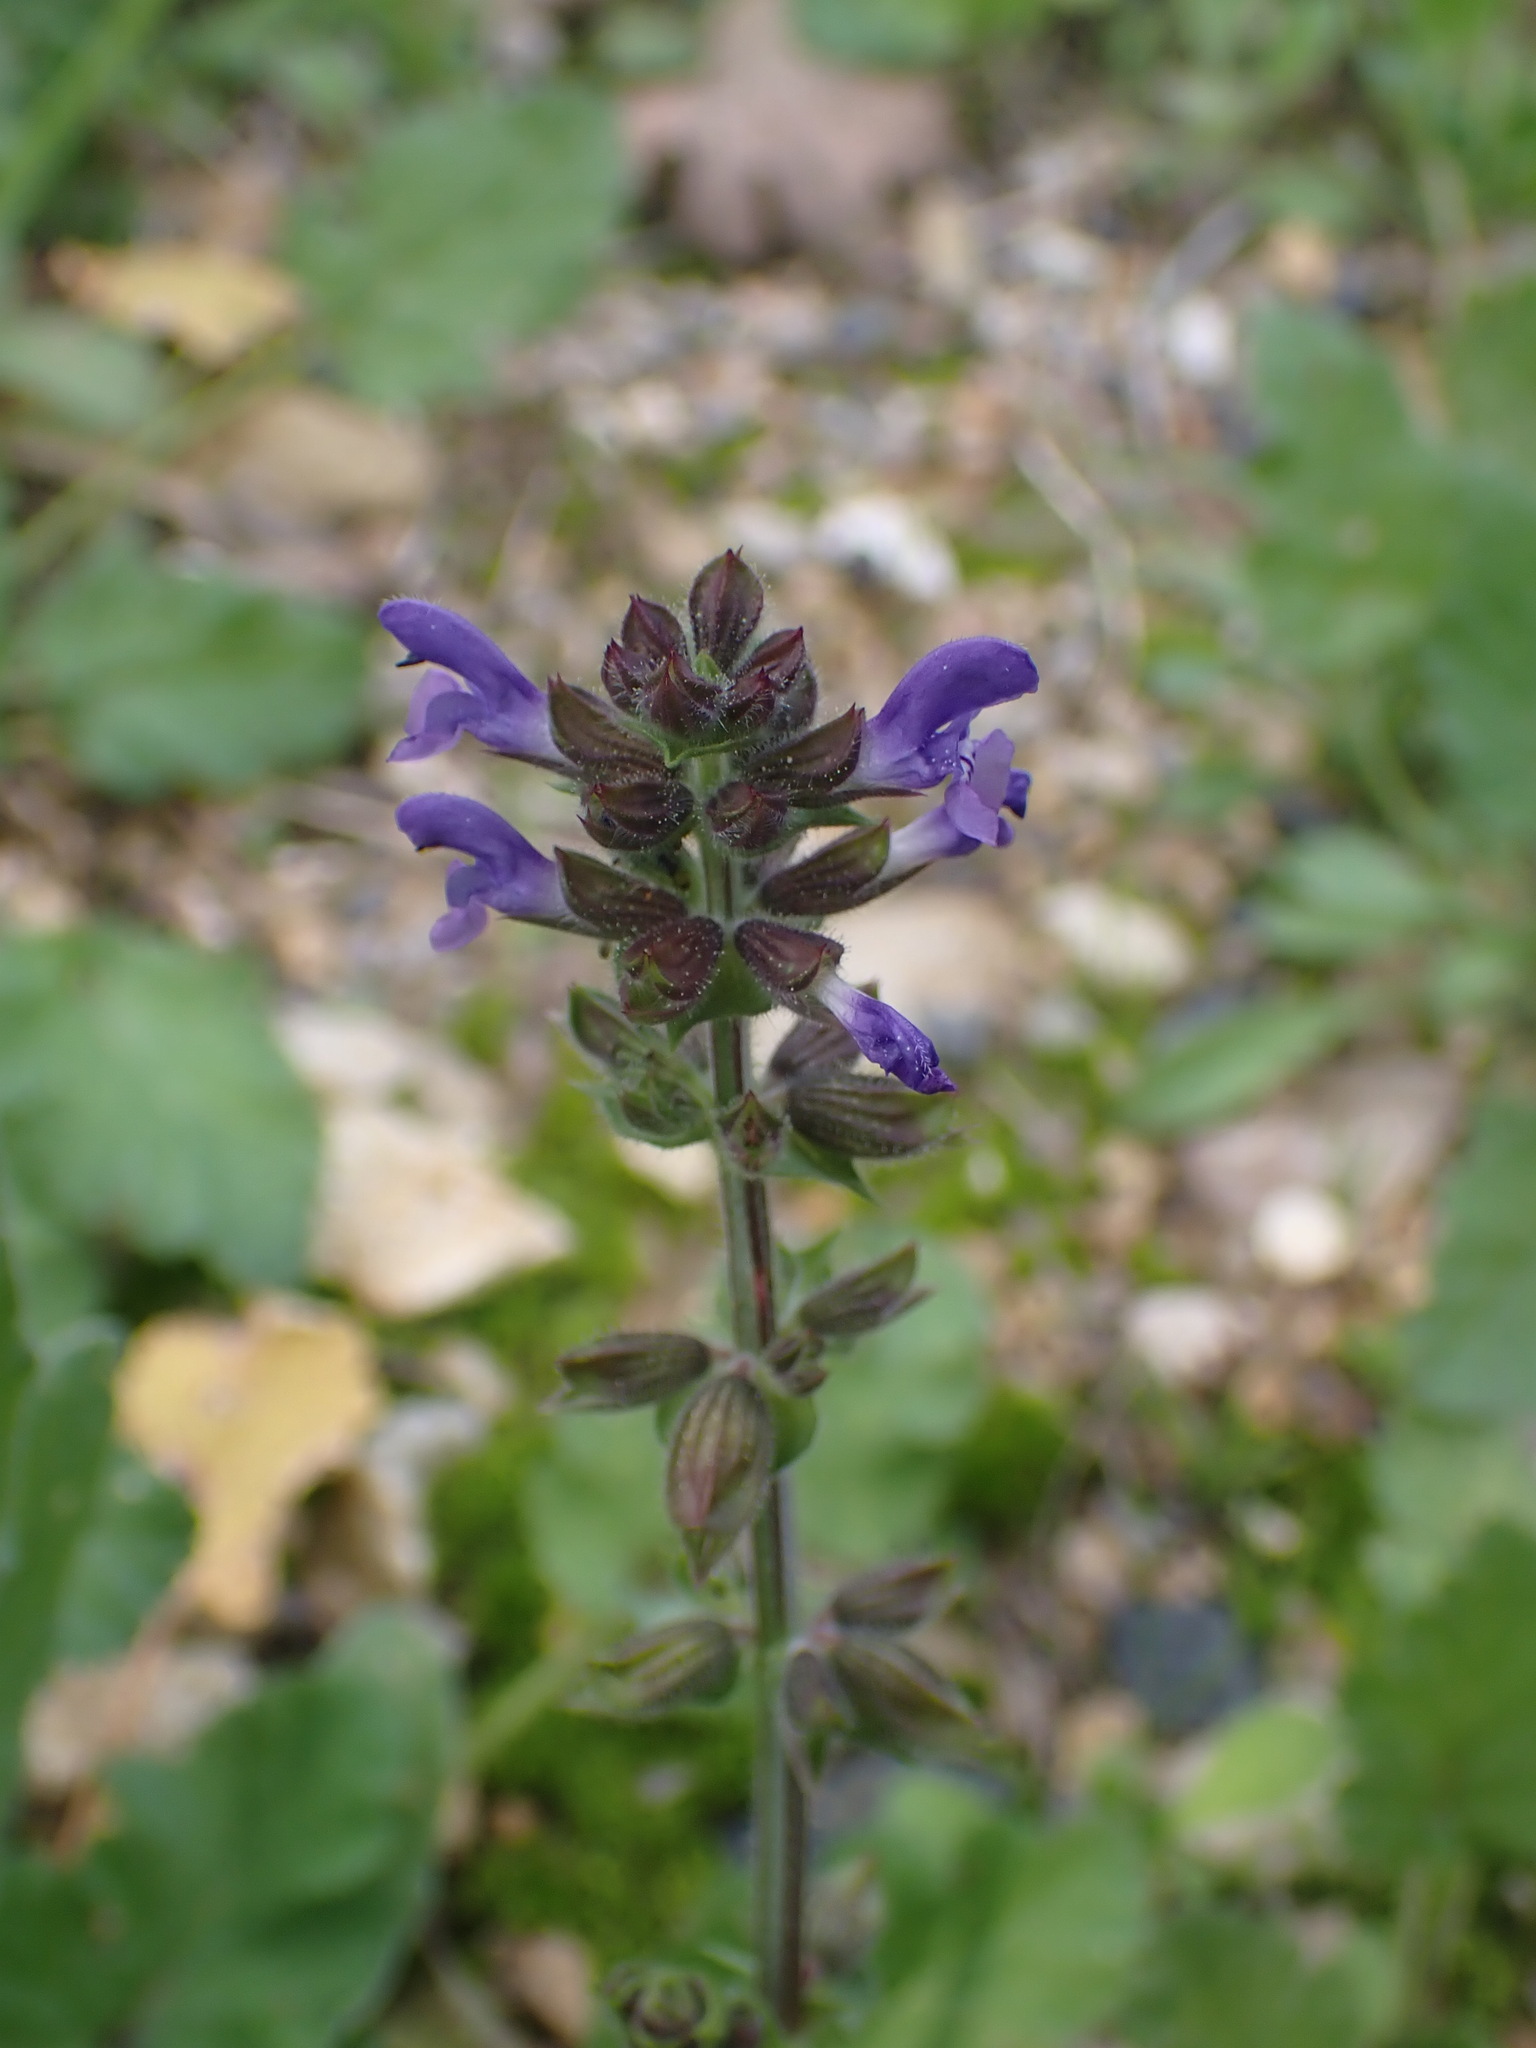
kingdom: Plantae
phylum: Tracheophyta
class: Magnoliopsida
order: Lamiales
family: Lamiaceae
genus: Salvia
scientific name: Salvia verbenaca
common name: Wild clary
